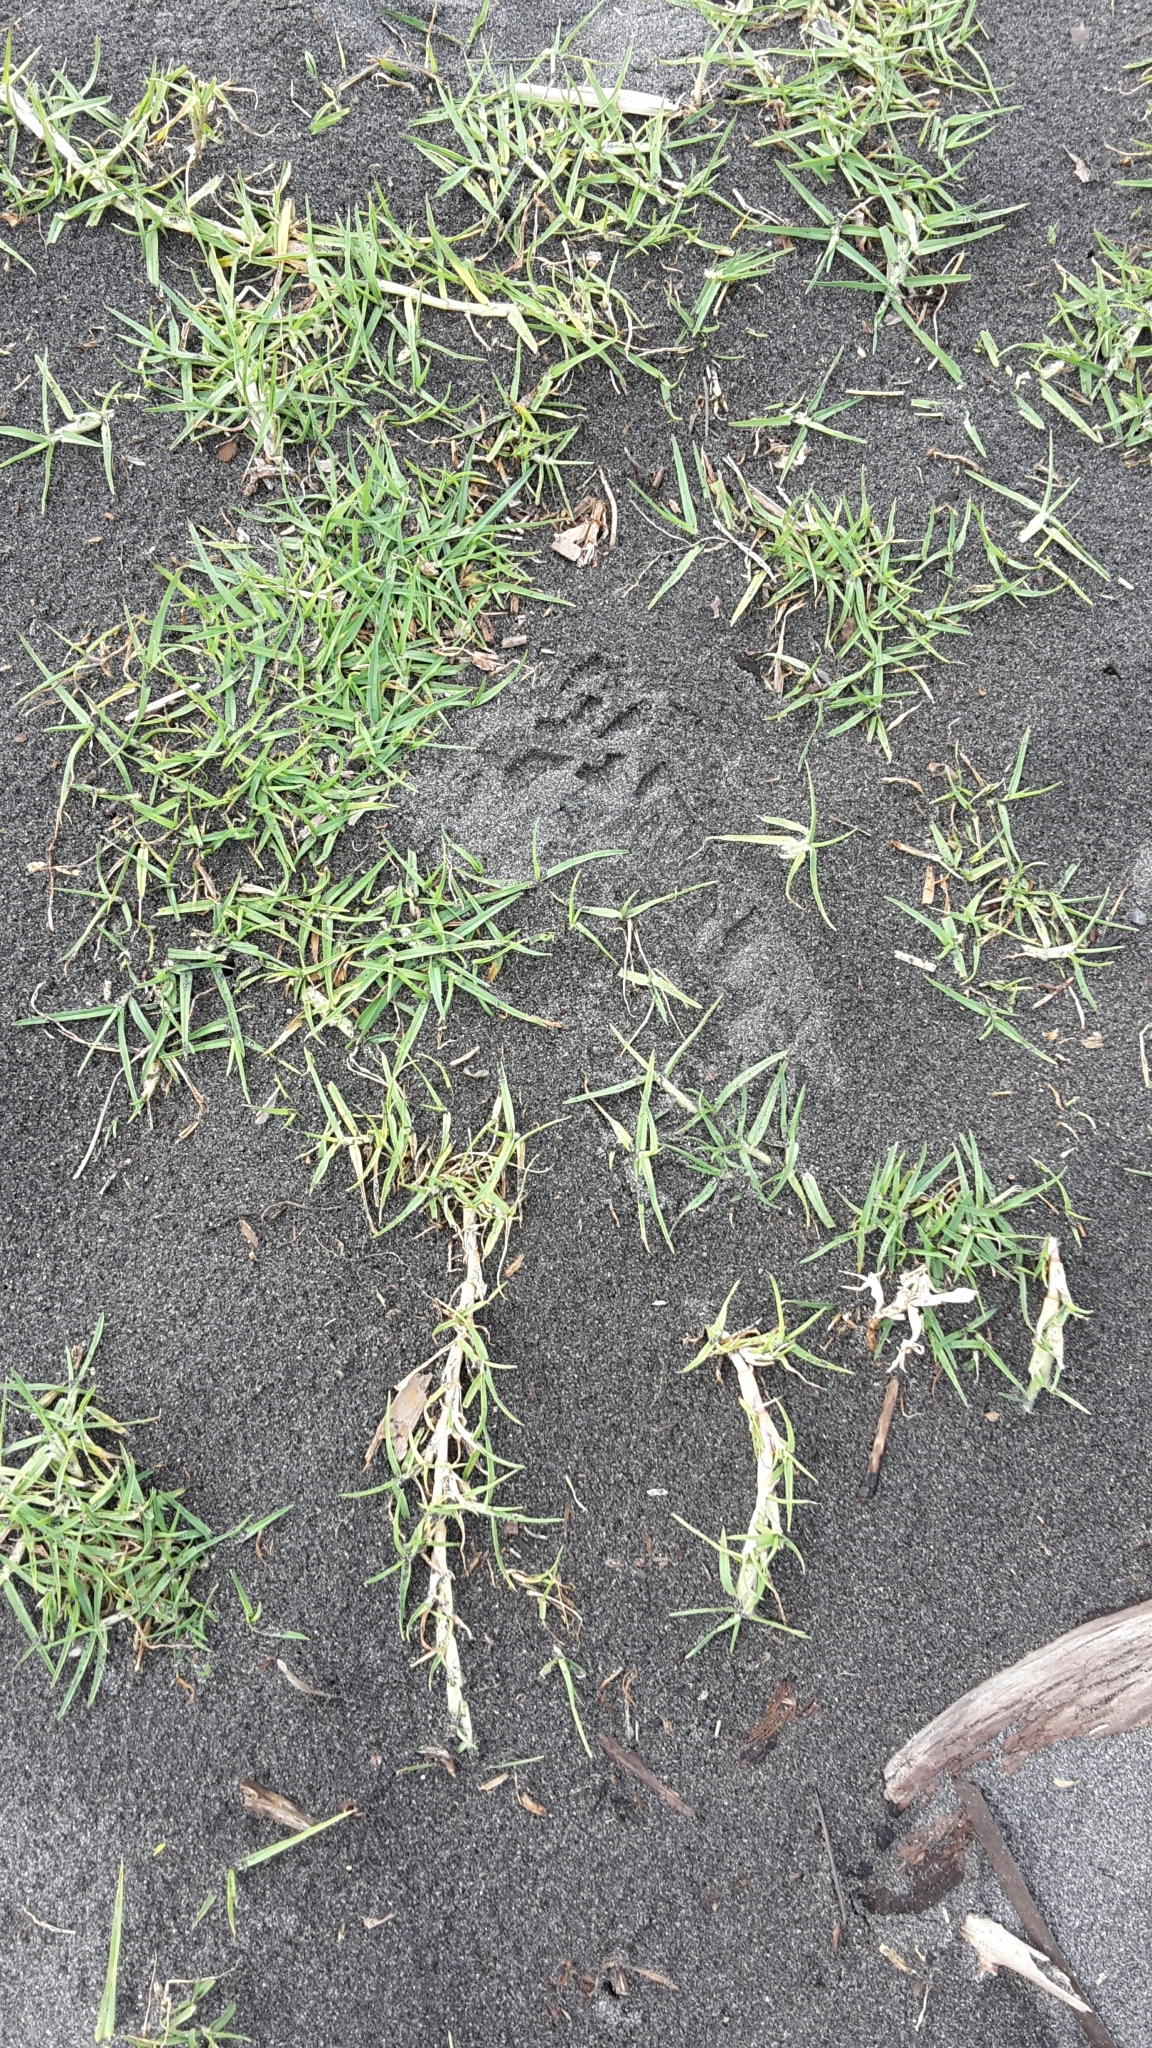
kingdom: Plantae
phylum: Tracheophyta
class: Liliopsida
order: Poales
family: Poaceae
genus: Cenchrus
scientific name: Cenchrus clandestinus
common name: Kikuyugrass
